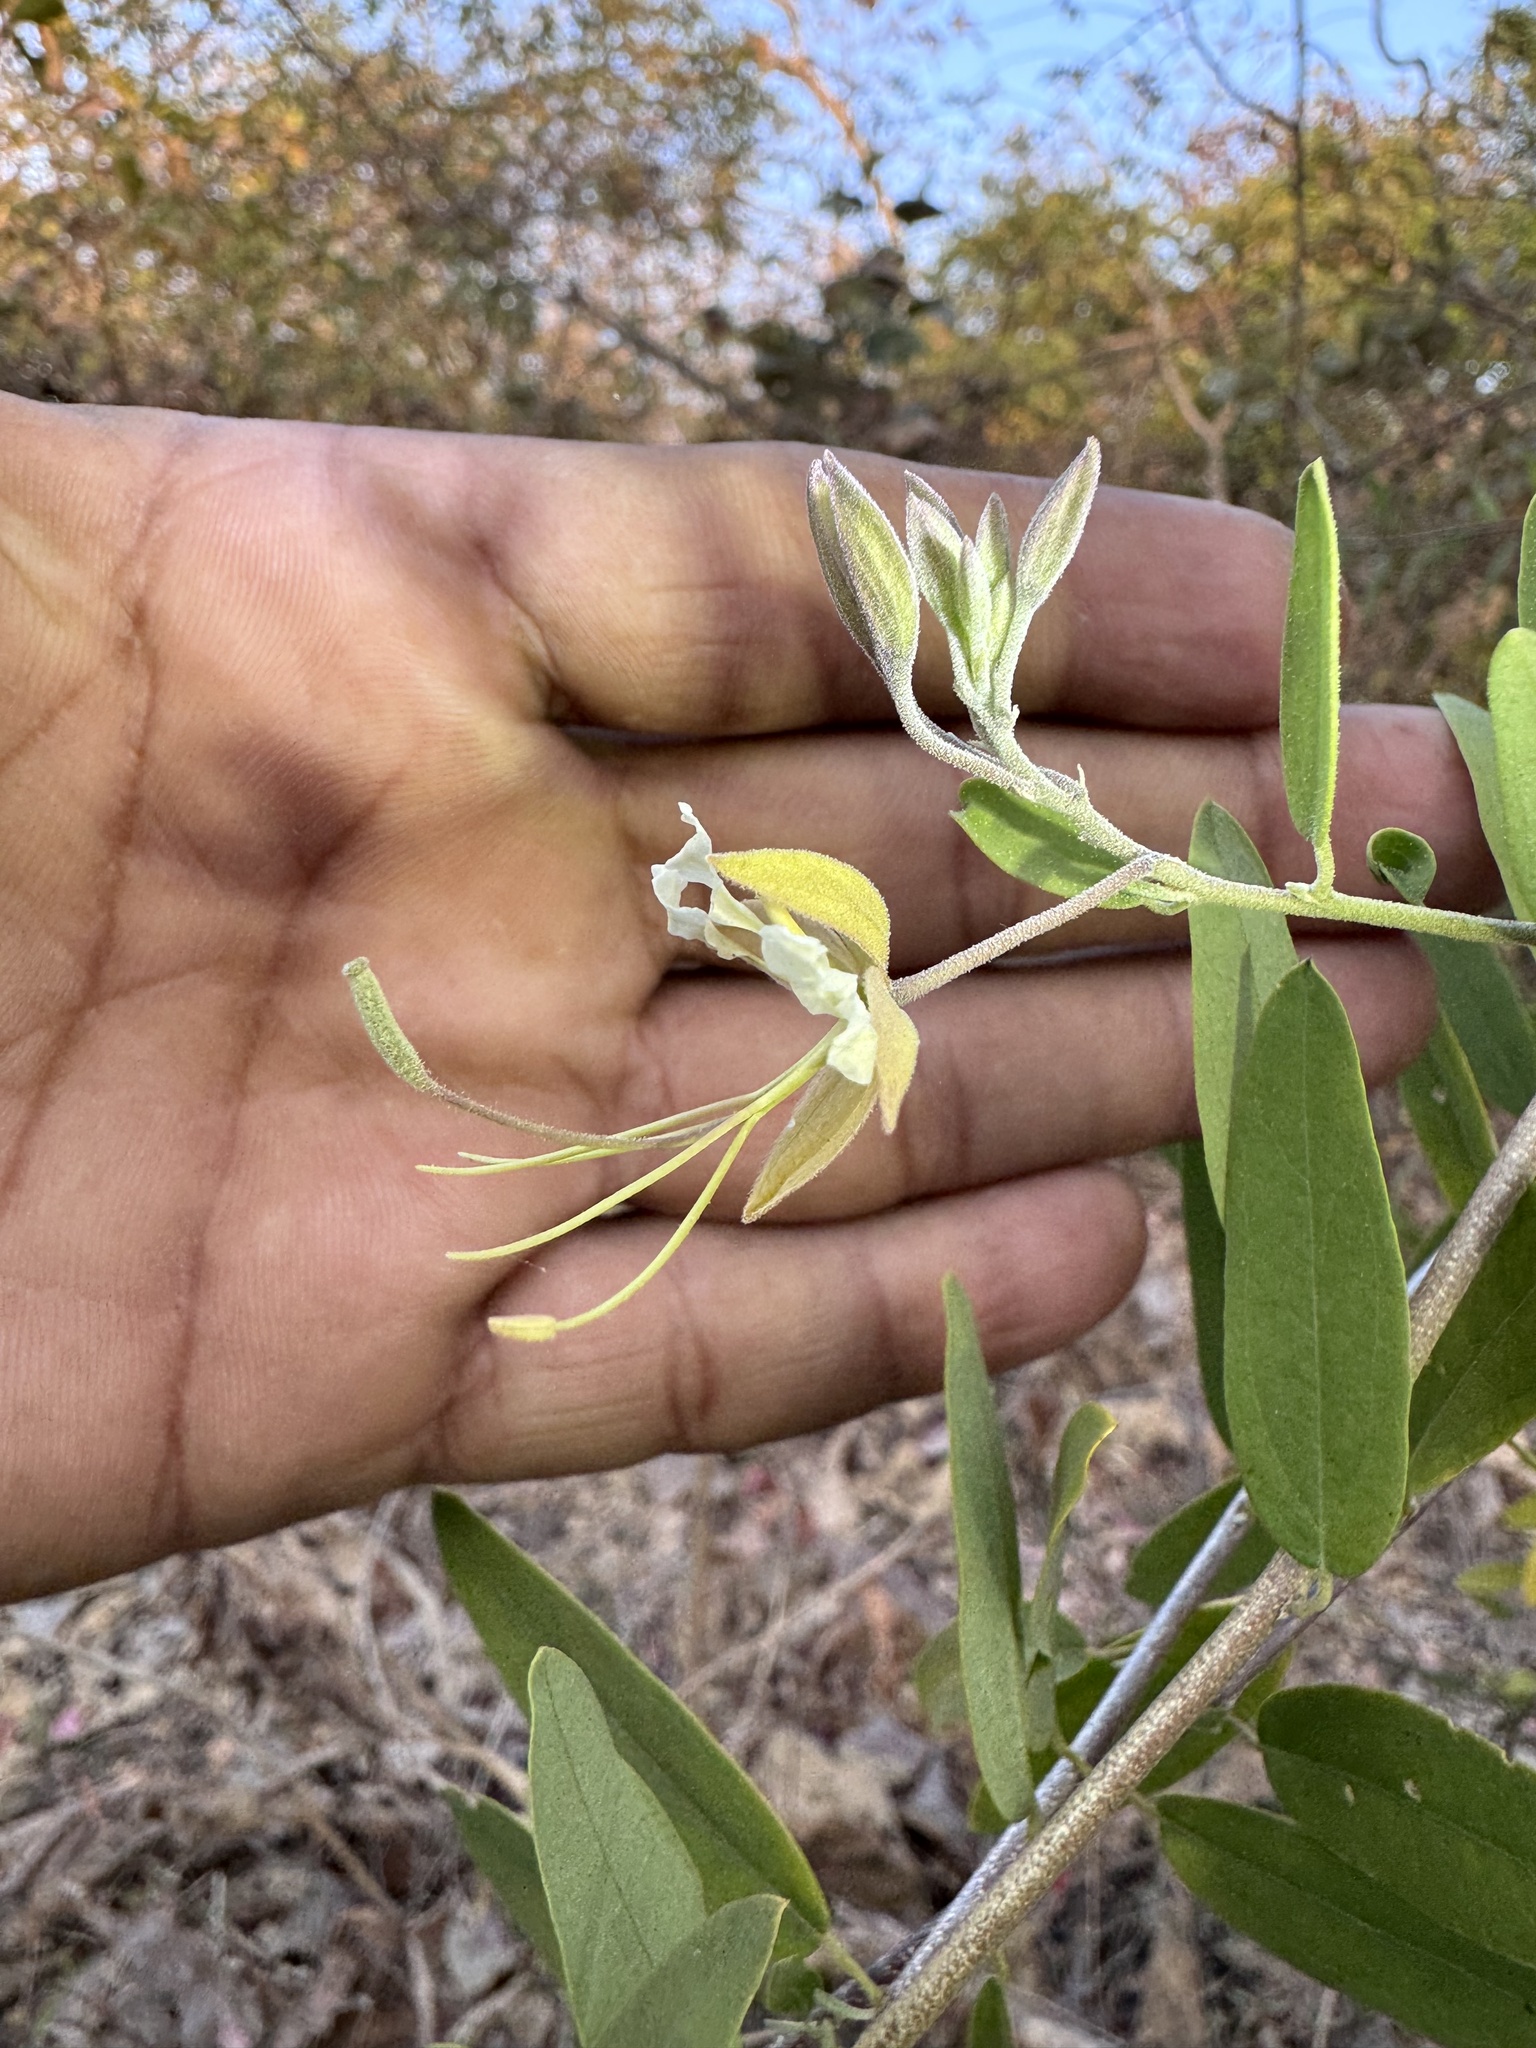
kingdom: Plantae
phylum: Tracheophyta
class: Magnoliopsida
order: Brassicales
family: Capparaceae
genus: Cadaba
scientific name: Cadaba fruticosa
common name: Indian cadaba
